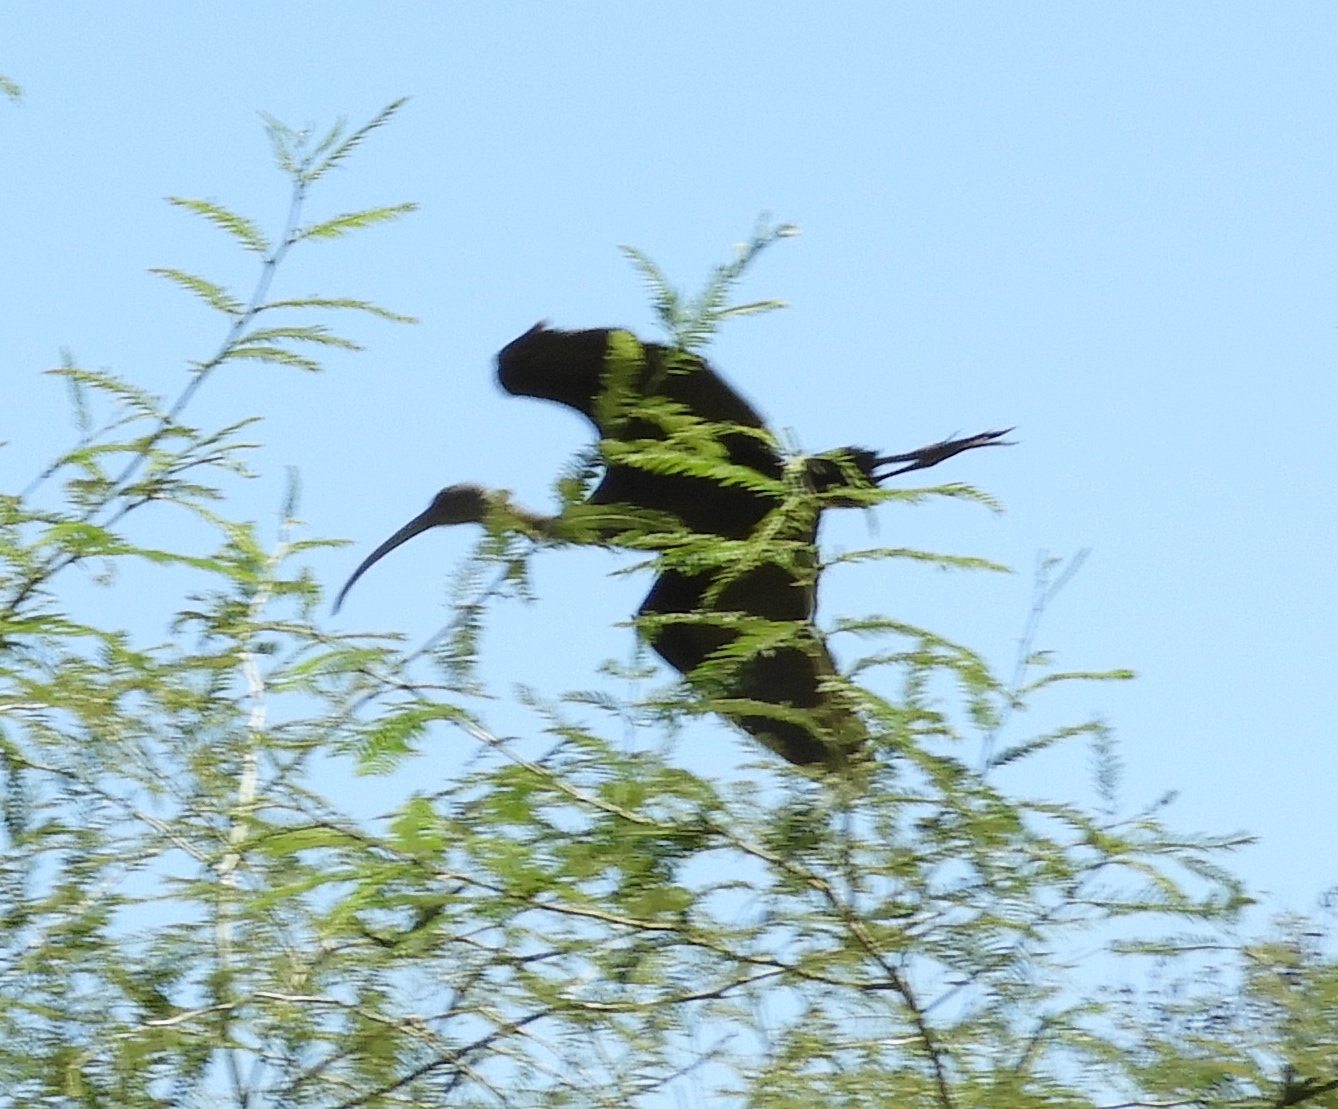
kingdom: Animalia
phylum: Chordata
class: Aves
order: Pelecaniformes
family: Threskiornithidae
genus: Plegadis
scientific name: Plegadis chihi
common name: White-faced ibis
